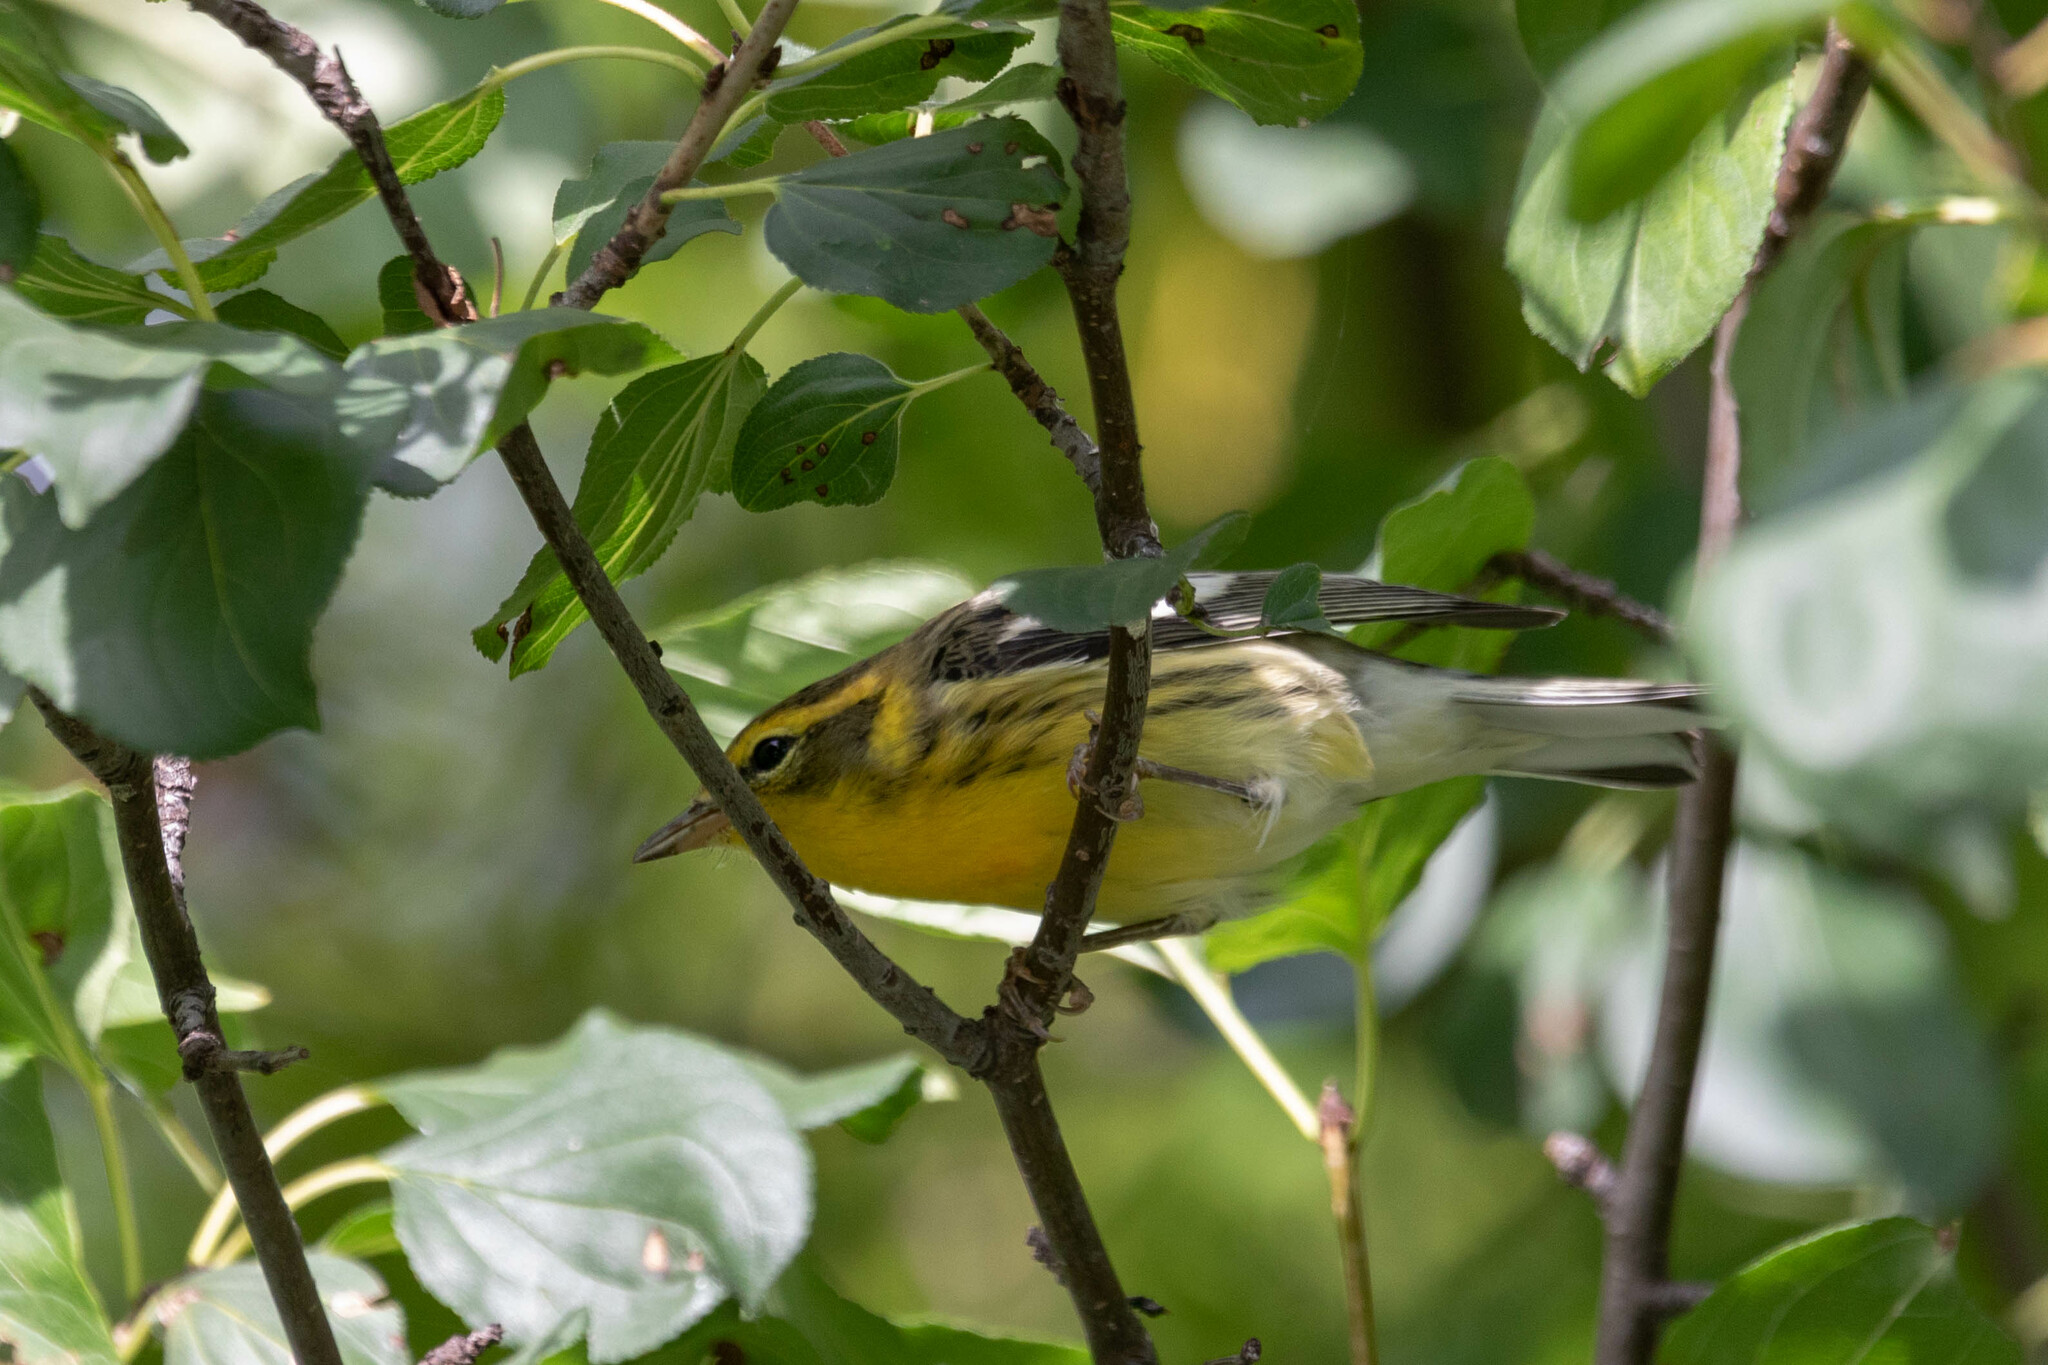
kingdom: Animalia
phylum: Chordata
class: Aves
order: Passeriformes
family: Parulidae
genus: Setophaga
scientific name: Setophaga fusca
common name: Blackburnian warbler
